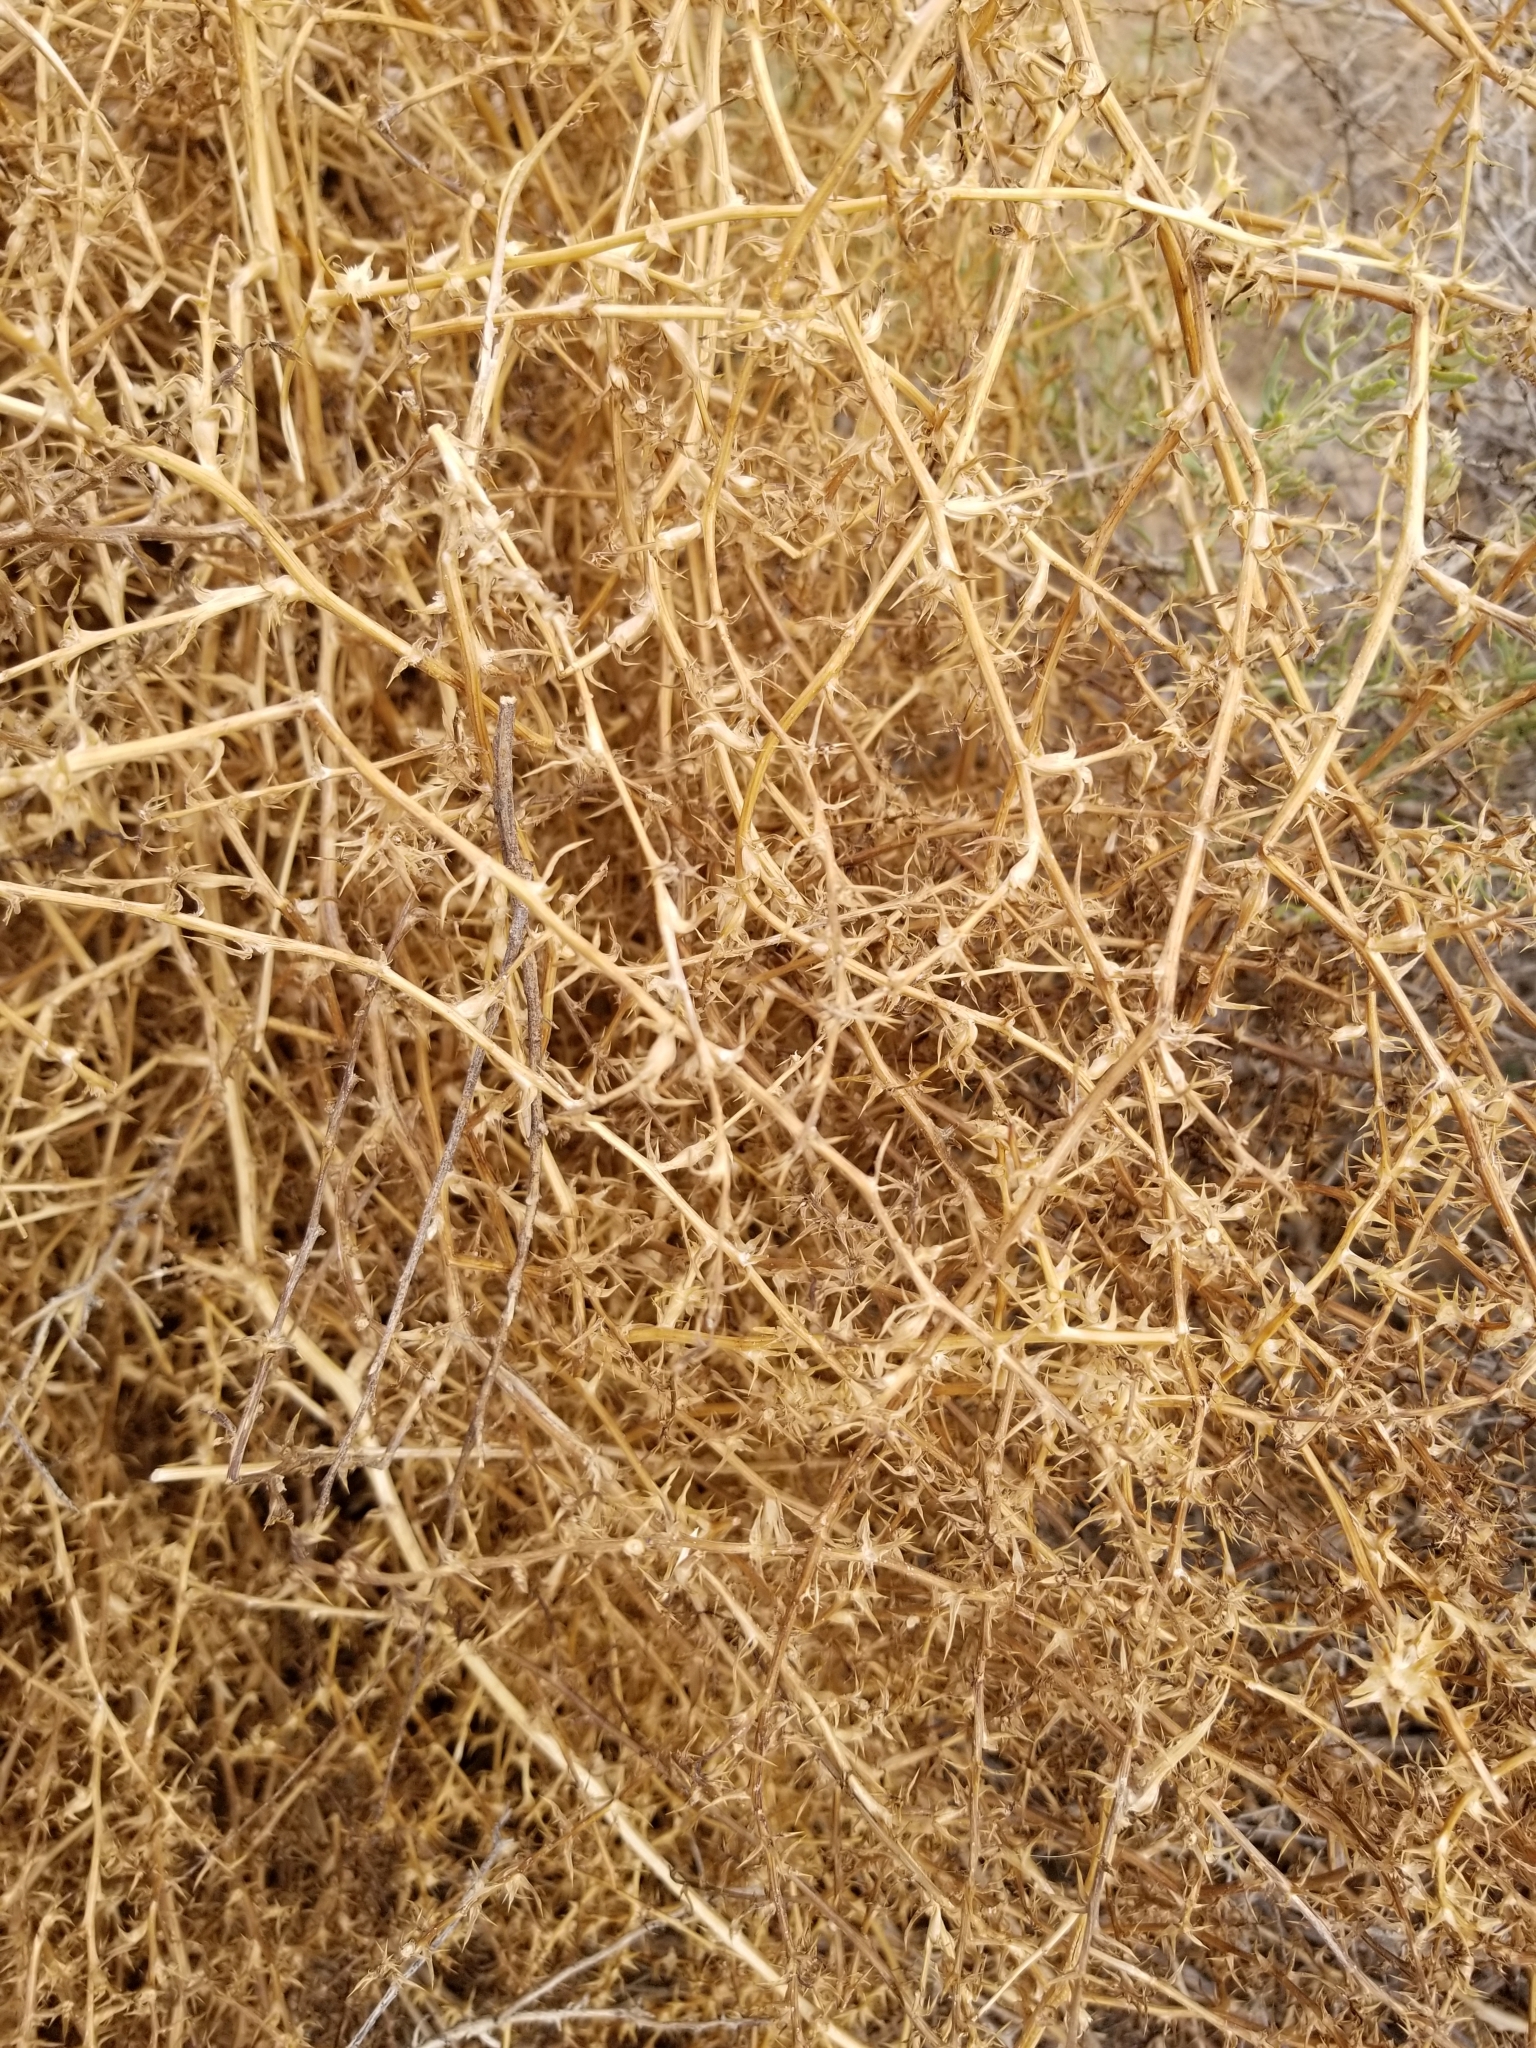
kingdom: Plantae
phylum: Tracheophyta
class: Magnoliopsida
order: Caryophyllales
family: Amaranthaceae
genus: Salsola
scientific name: Salsola tragus
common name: Prickly russian thistle
